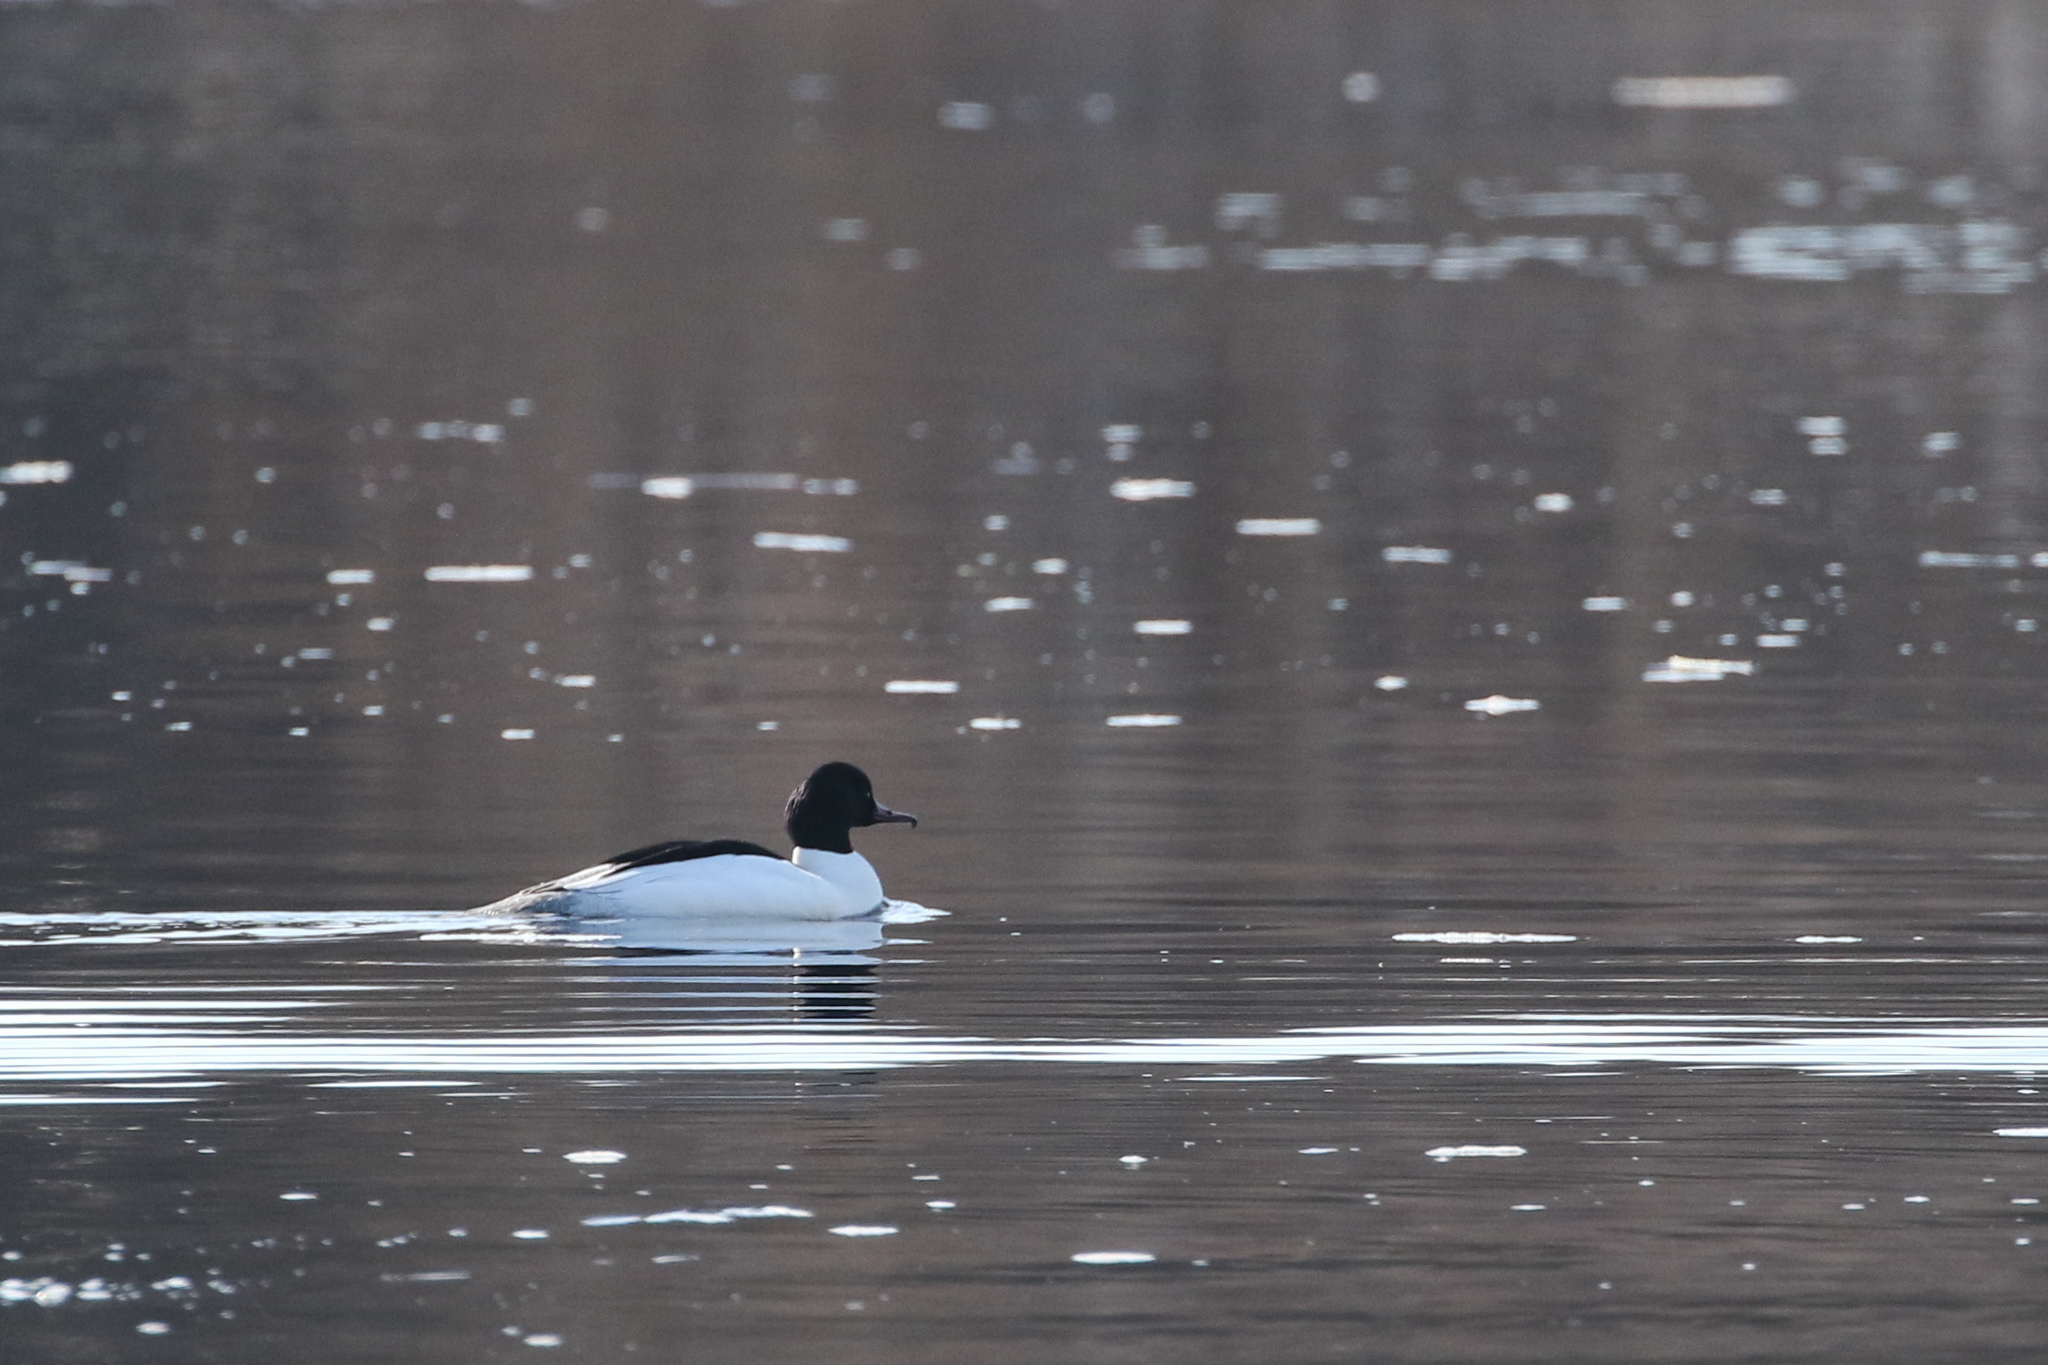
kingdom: Animalia
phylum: Chordata
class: Aves
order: Anseriformes
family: Anatidae
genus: Mergus
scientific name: Mergus merganser
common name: Common merganser
